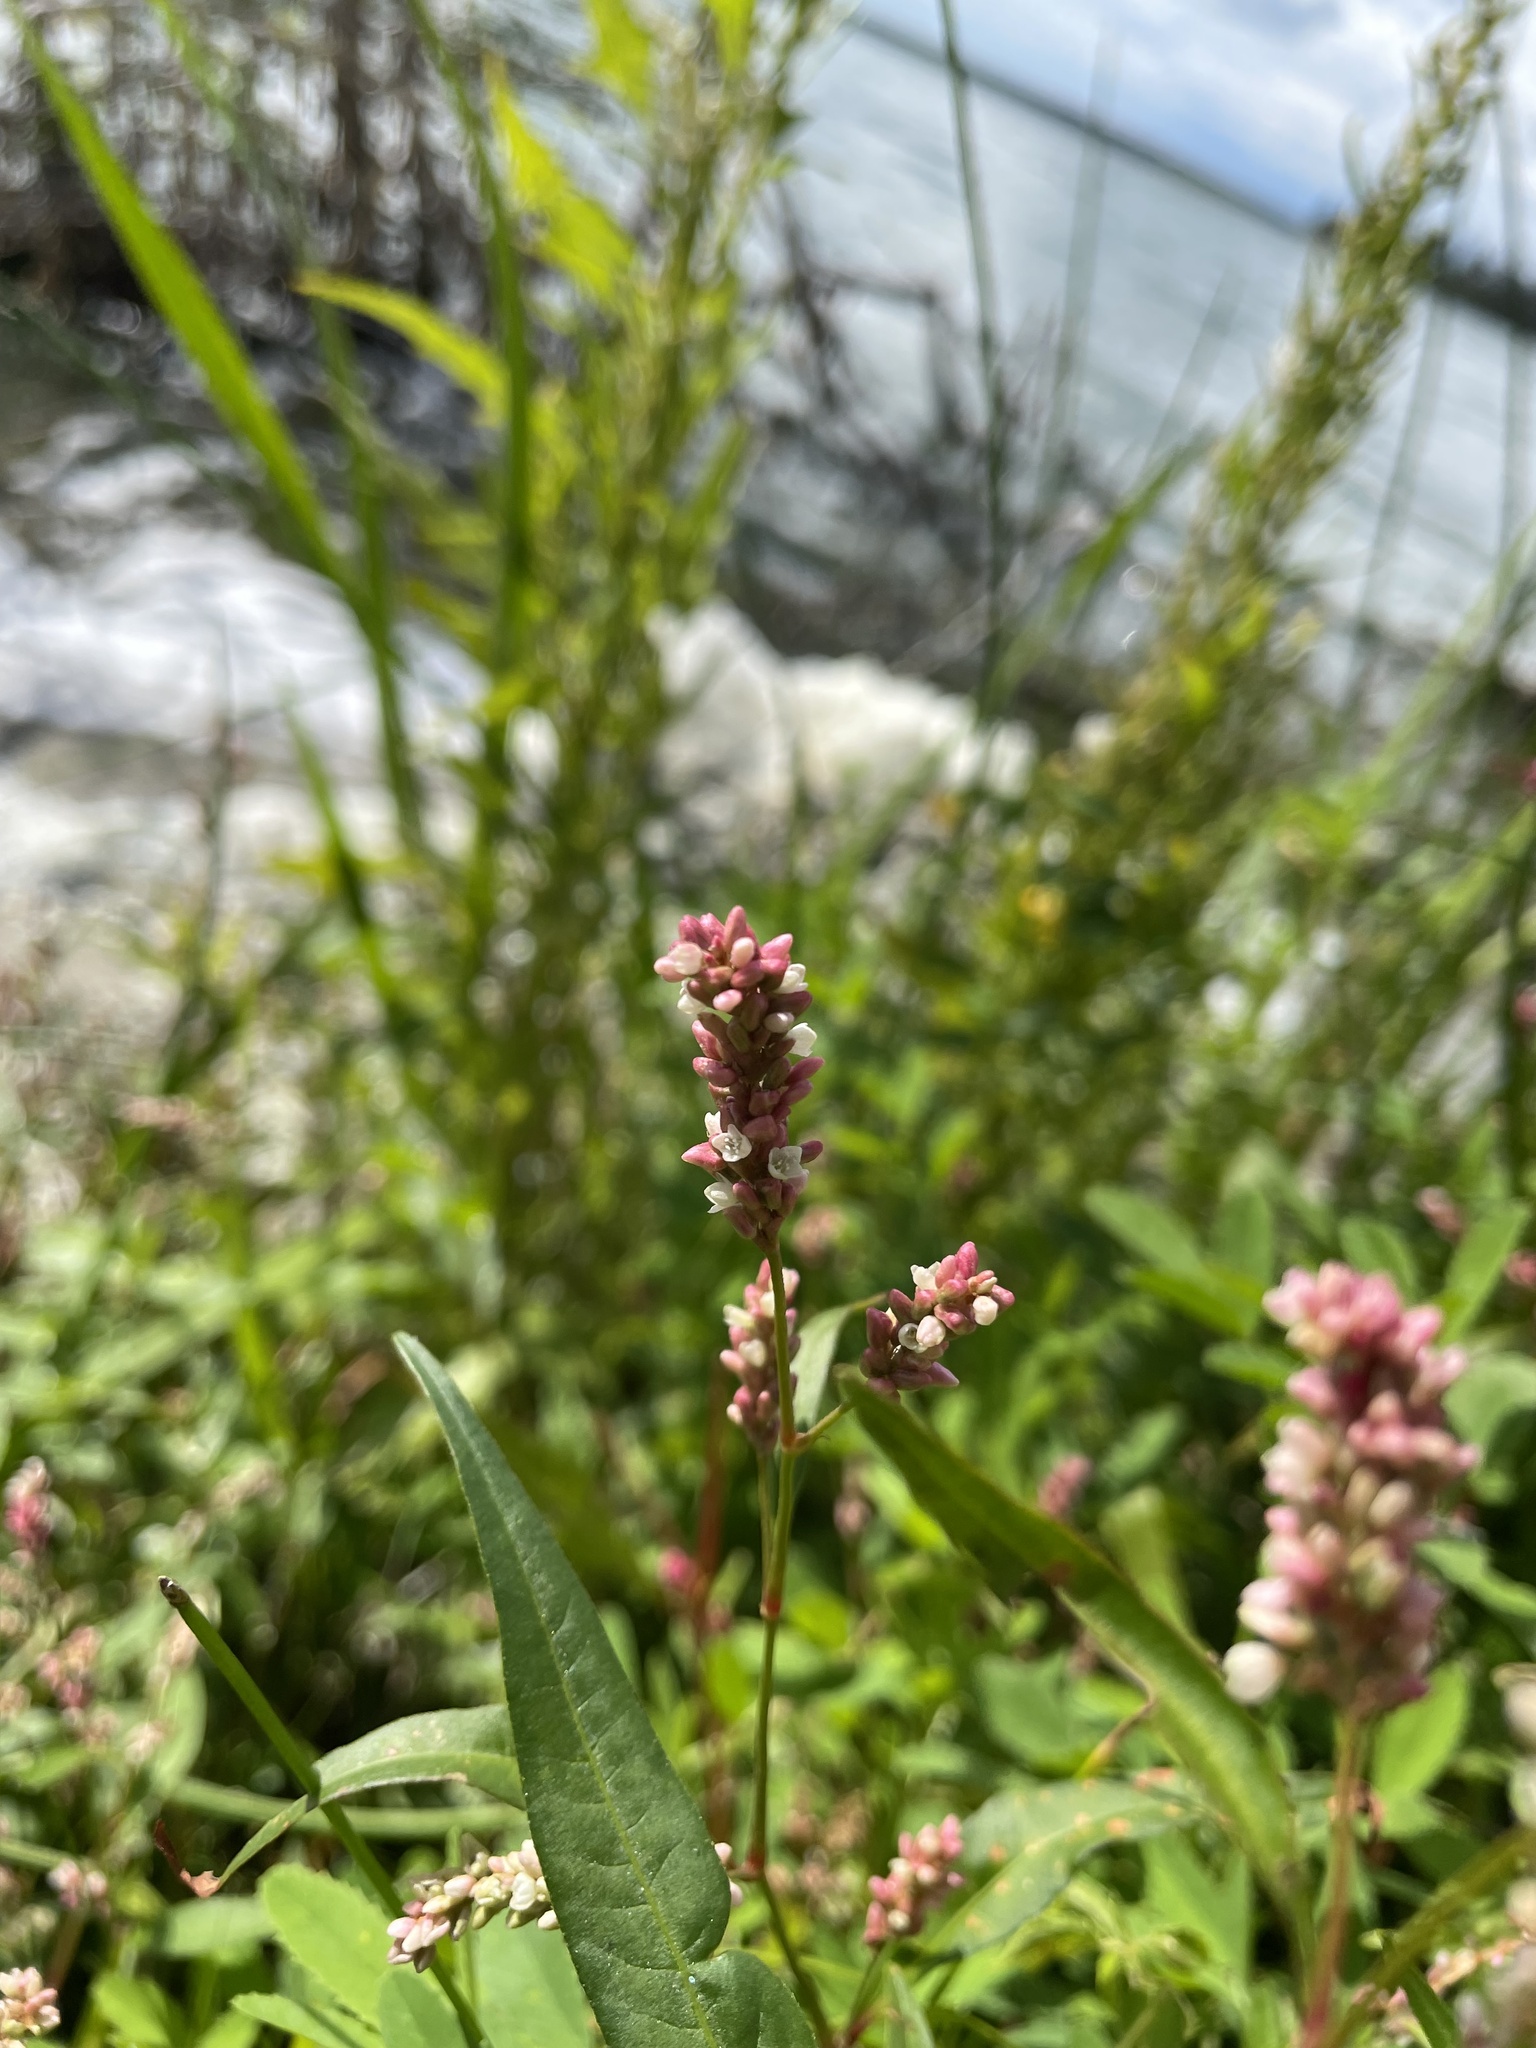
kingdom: Plantae
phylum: Tracheophyta
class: Magnoliopsida
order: Caryophyllales
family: Polygonaceae
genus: Persicaria
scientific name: Persicaria maculosa
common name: Redshank
